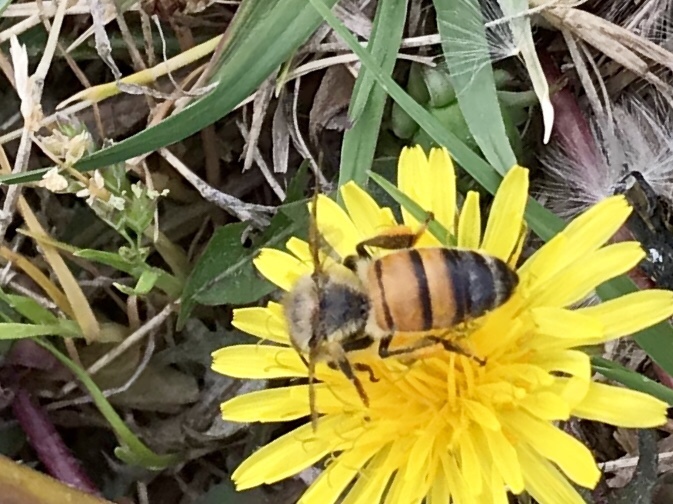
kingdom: Animalia
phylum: Arthropoda
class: Insecta
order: Hymenoptera
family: Apidae
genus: Apis
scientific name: Apis mellifera
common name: Honey bee
